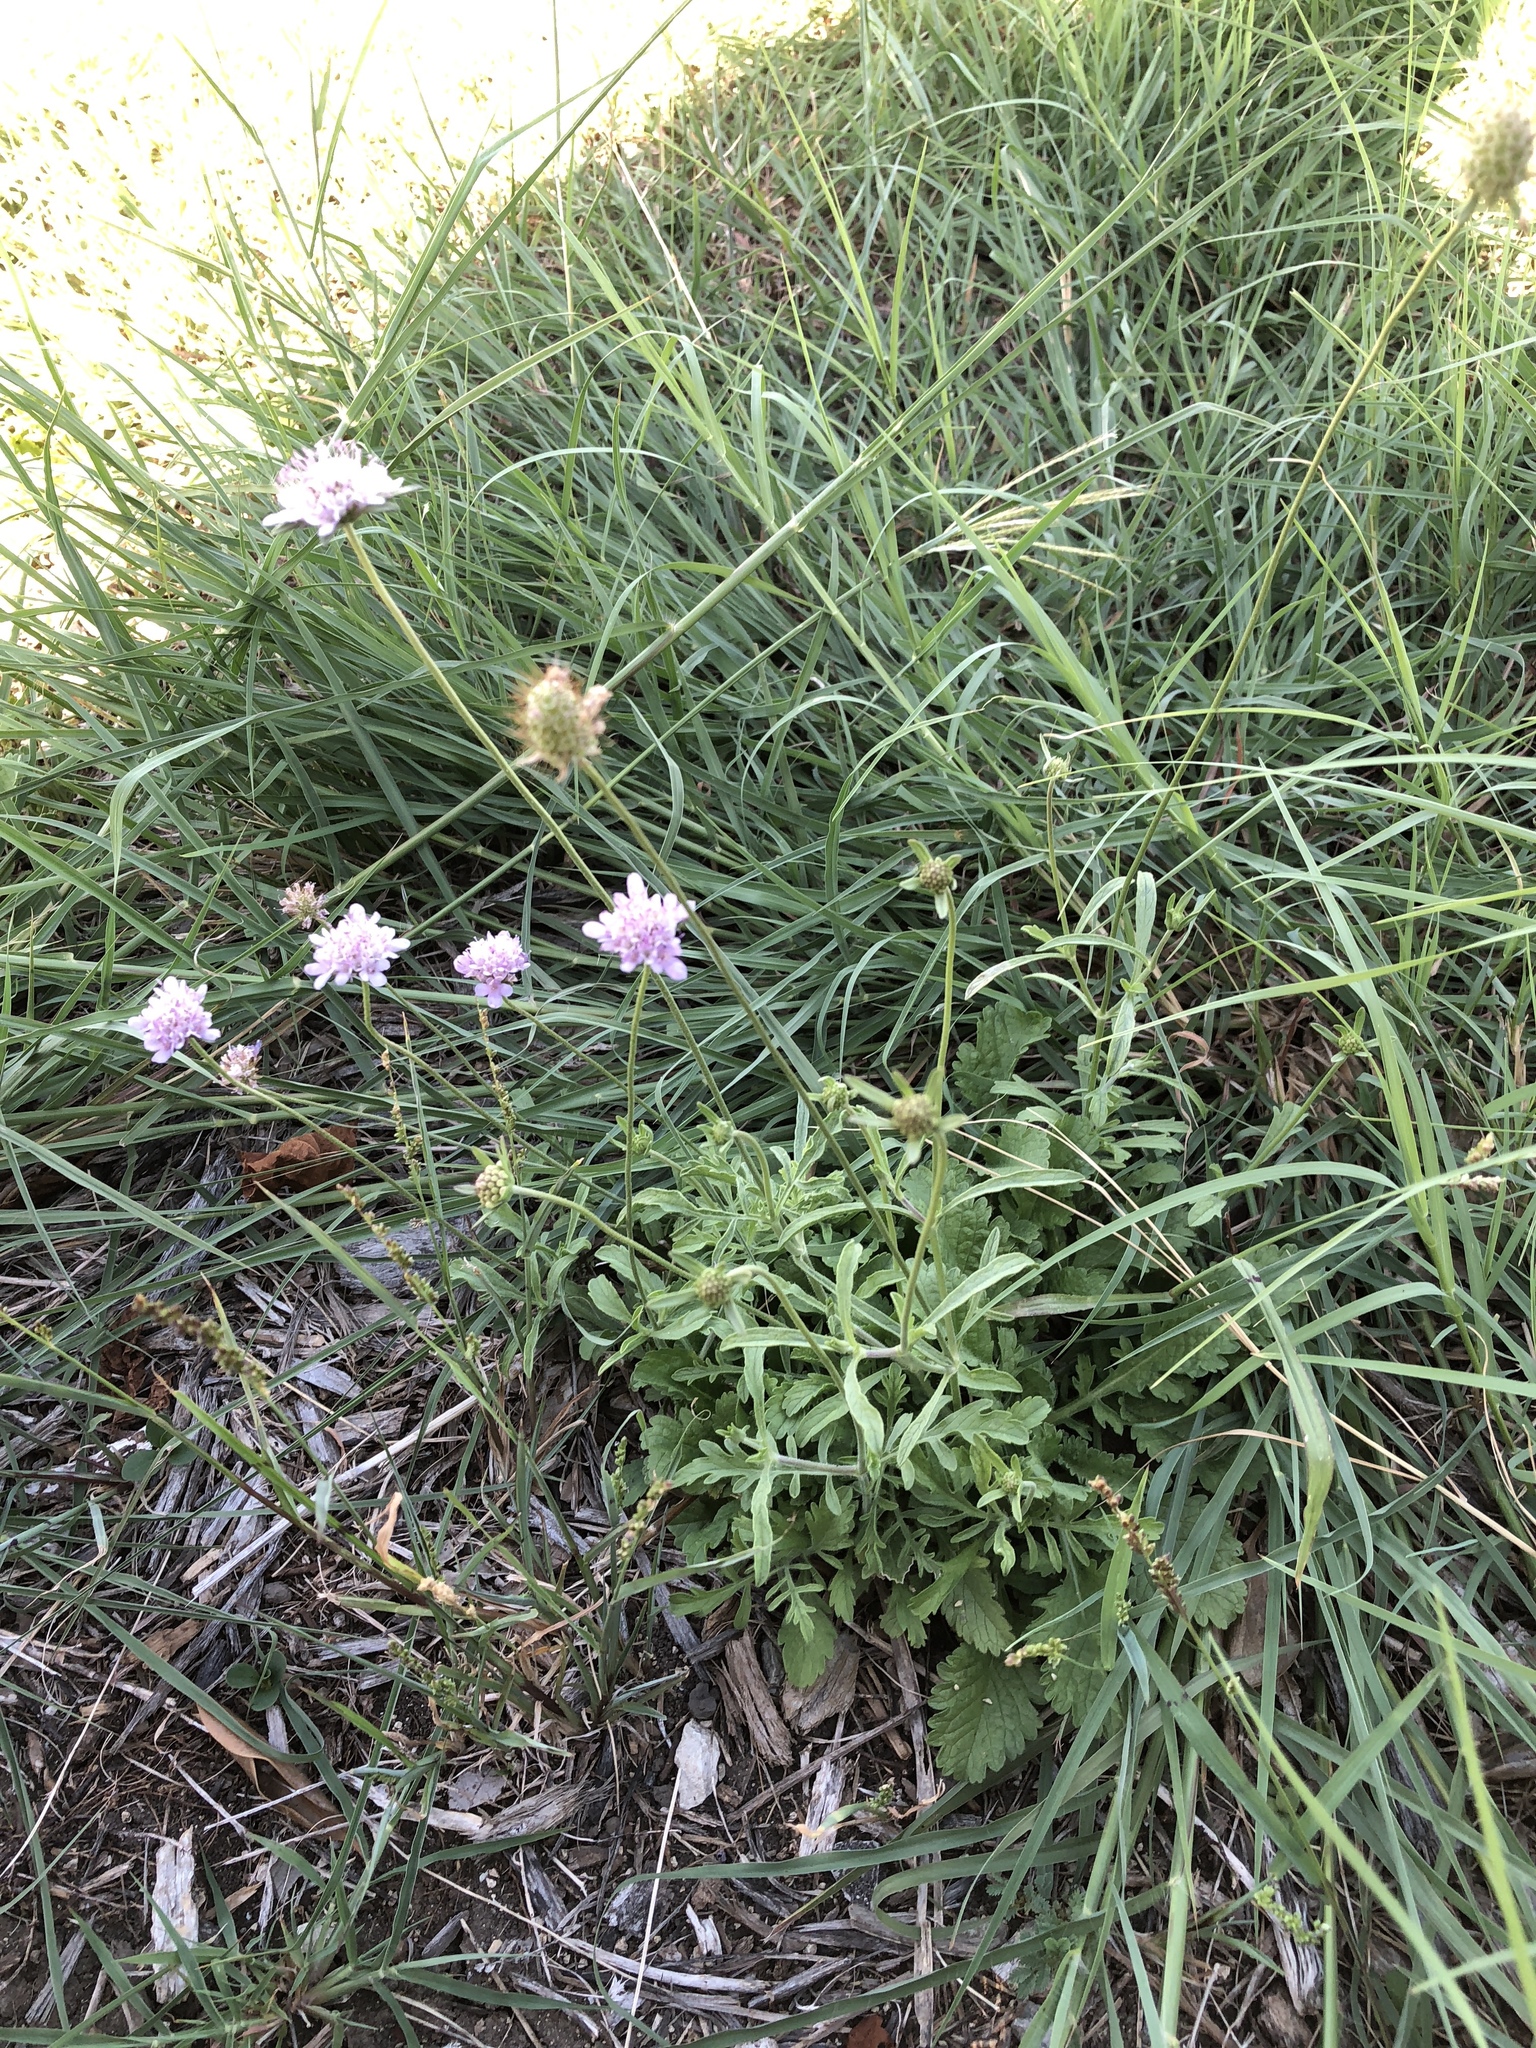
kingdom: Plantae
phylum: Tracheophyta
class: Magnoliopsida
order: Dipsacales
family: Caprifoliaceae
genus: Sixalix
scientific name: Sixalix atropurpurea
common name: Sweet scabious
